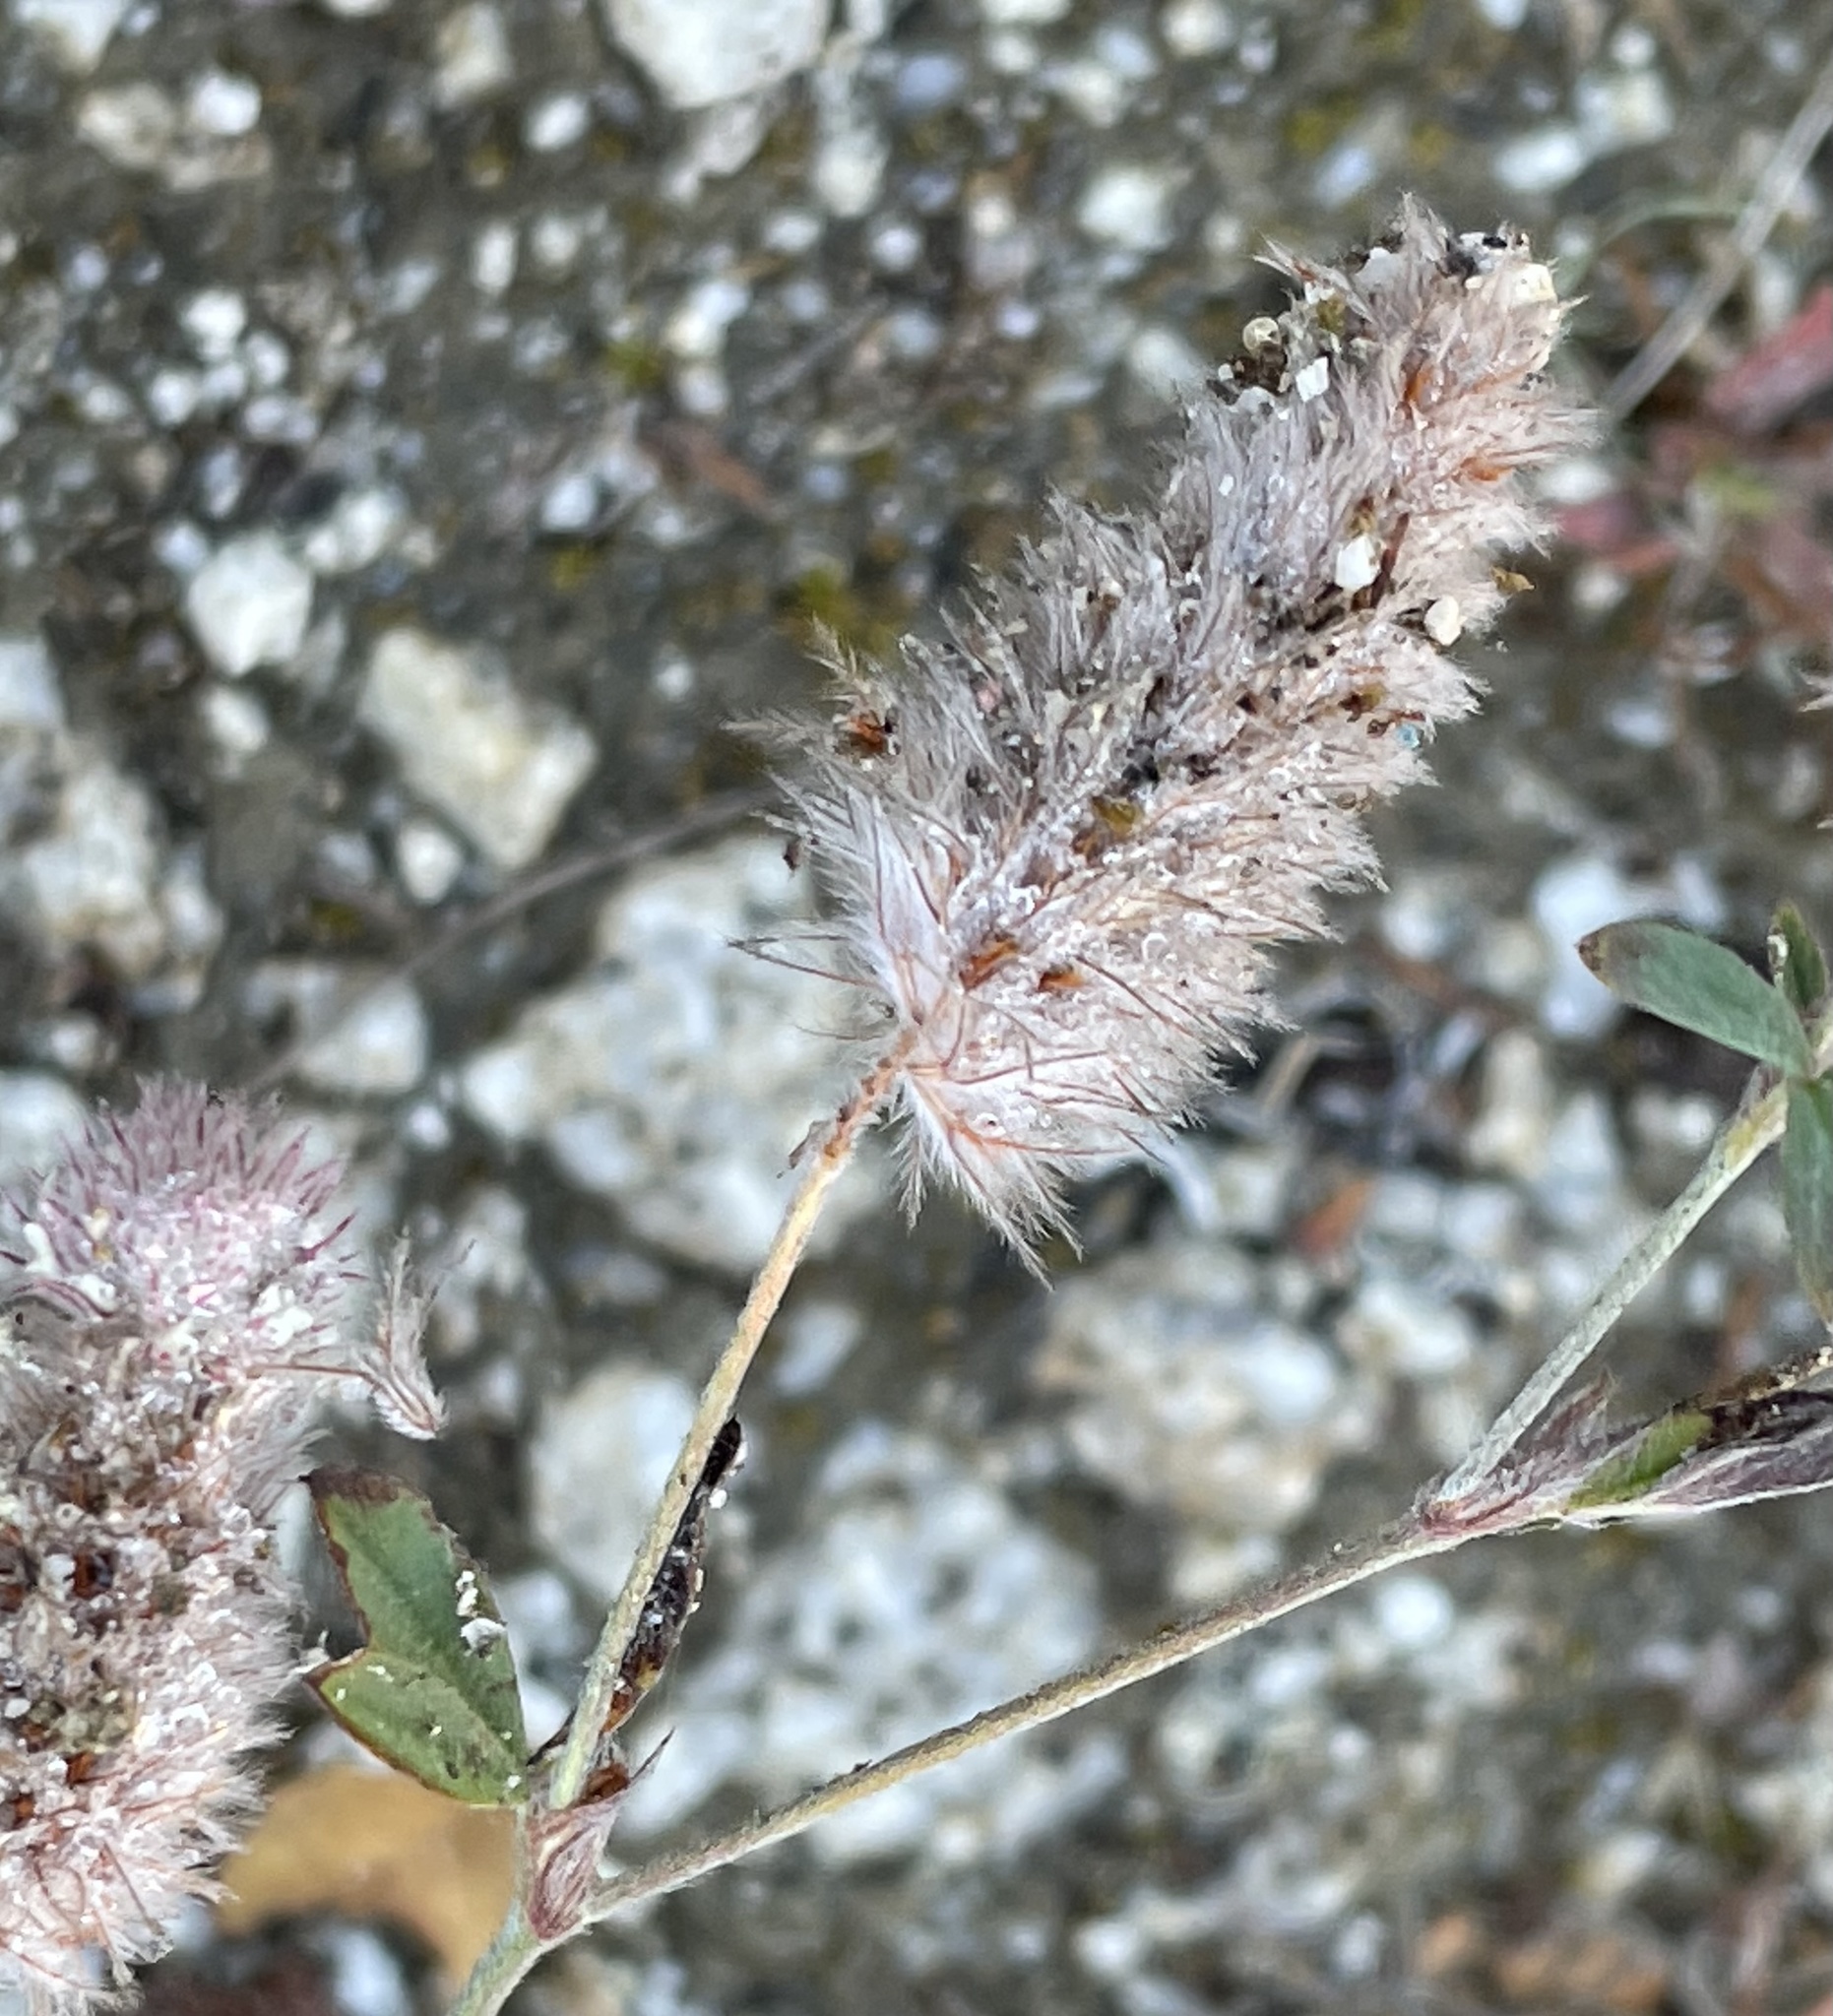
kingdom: Plantae
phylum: Tracheophyta
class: Magnoliopsida
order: Fabales
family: Fabaceae
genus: Trifolium
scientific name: Trifolium arvense
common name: Hare's-foot clover
